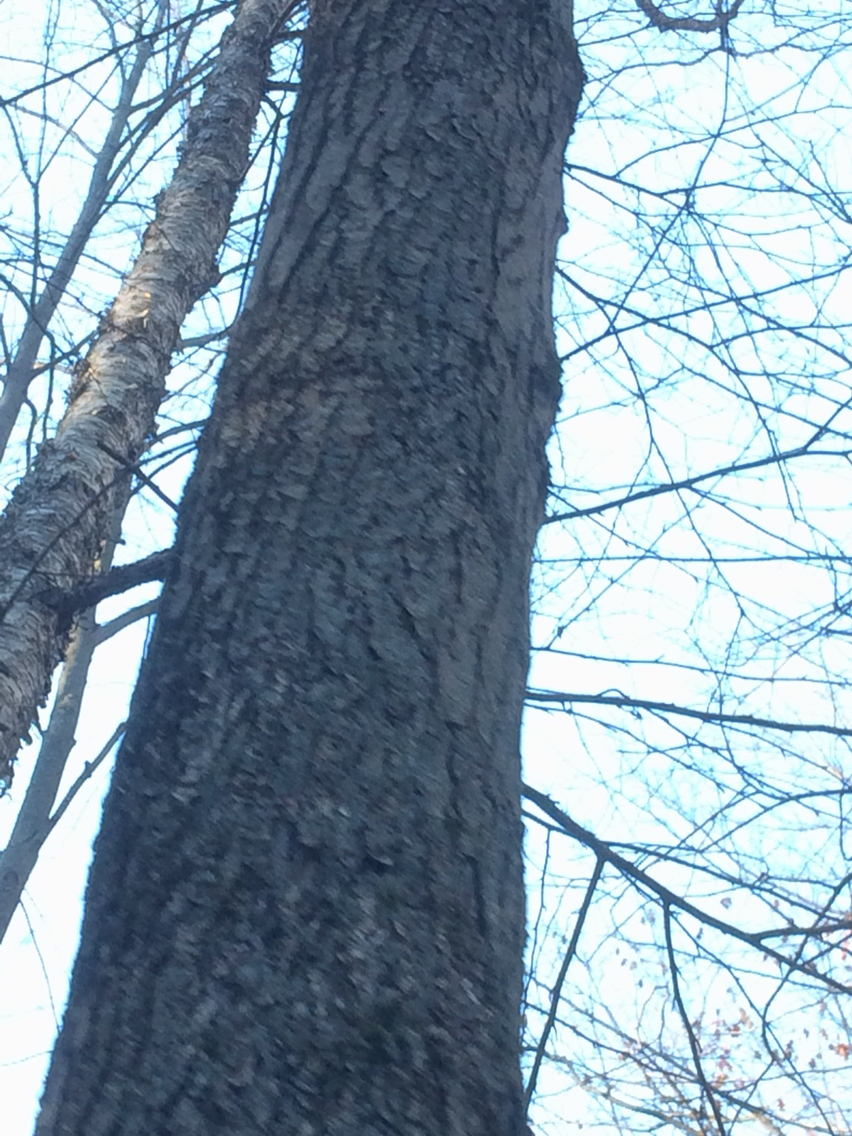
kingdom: Plantae
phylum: Tracheophyta
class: Magnoliopsida
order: Sapindales
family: Sapindaceae
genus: Acer
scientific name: Acer rubrum
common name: Red maple
